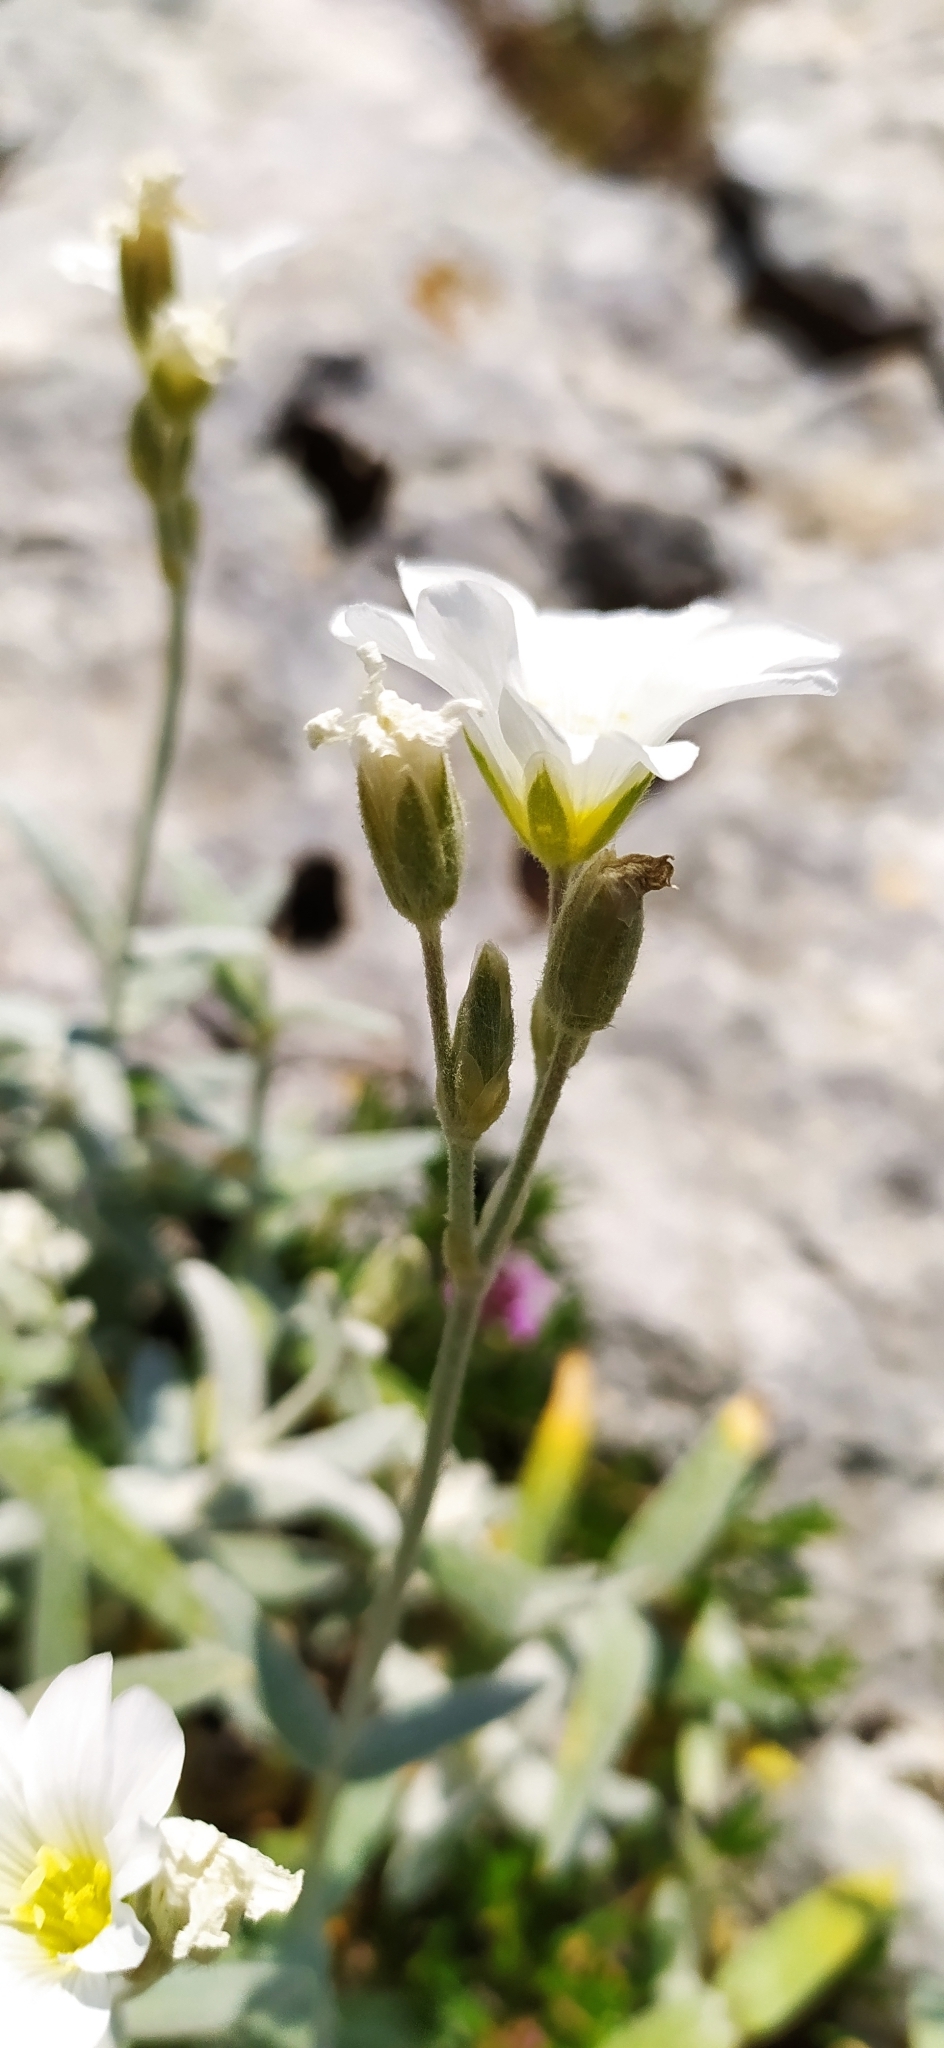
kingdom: Plantae
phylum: Tracheophyta
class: Magnoliopsida
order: Caryophyllales
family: Caryophyllaceae
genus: Cerastium
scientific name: Cerastium biebersteinii
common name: Snow-in-summer
